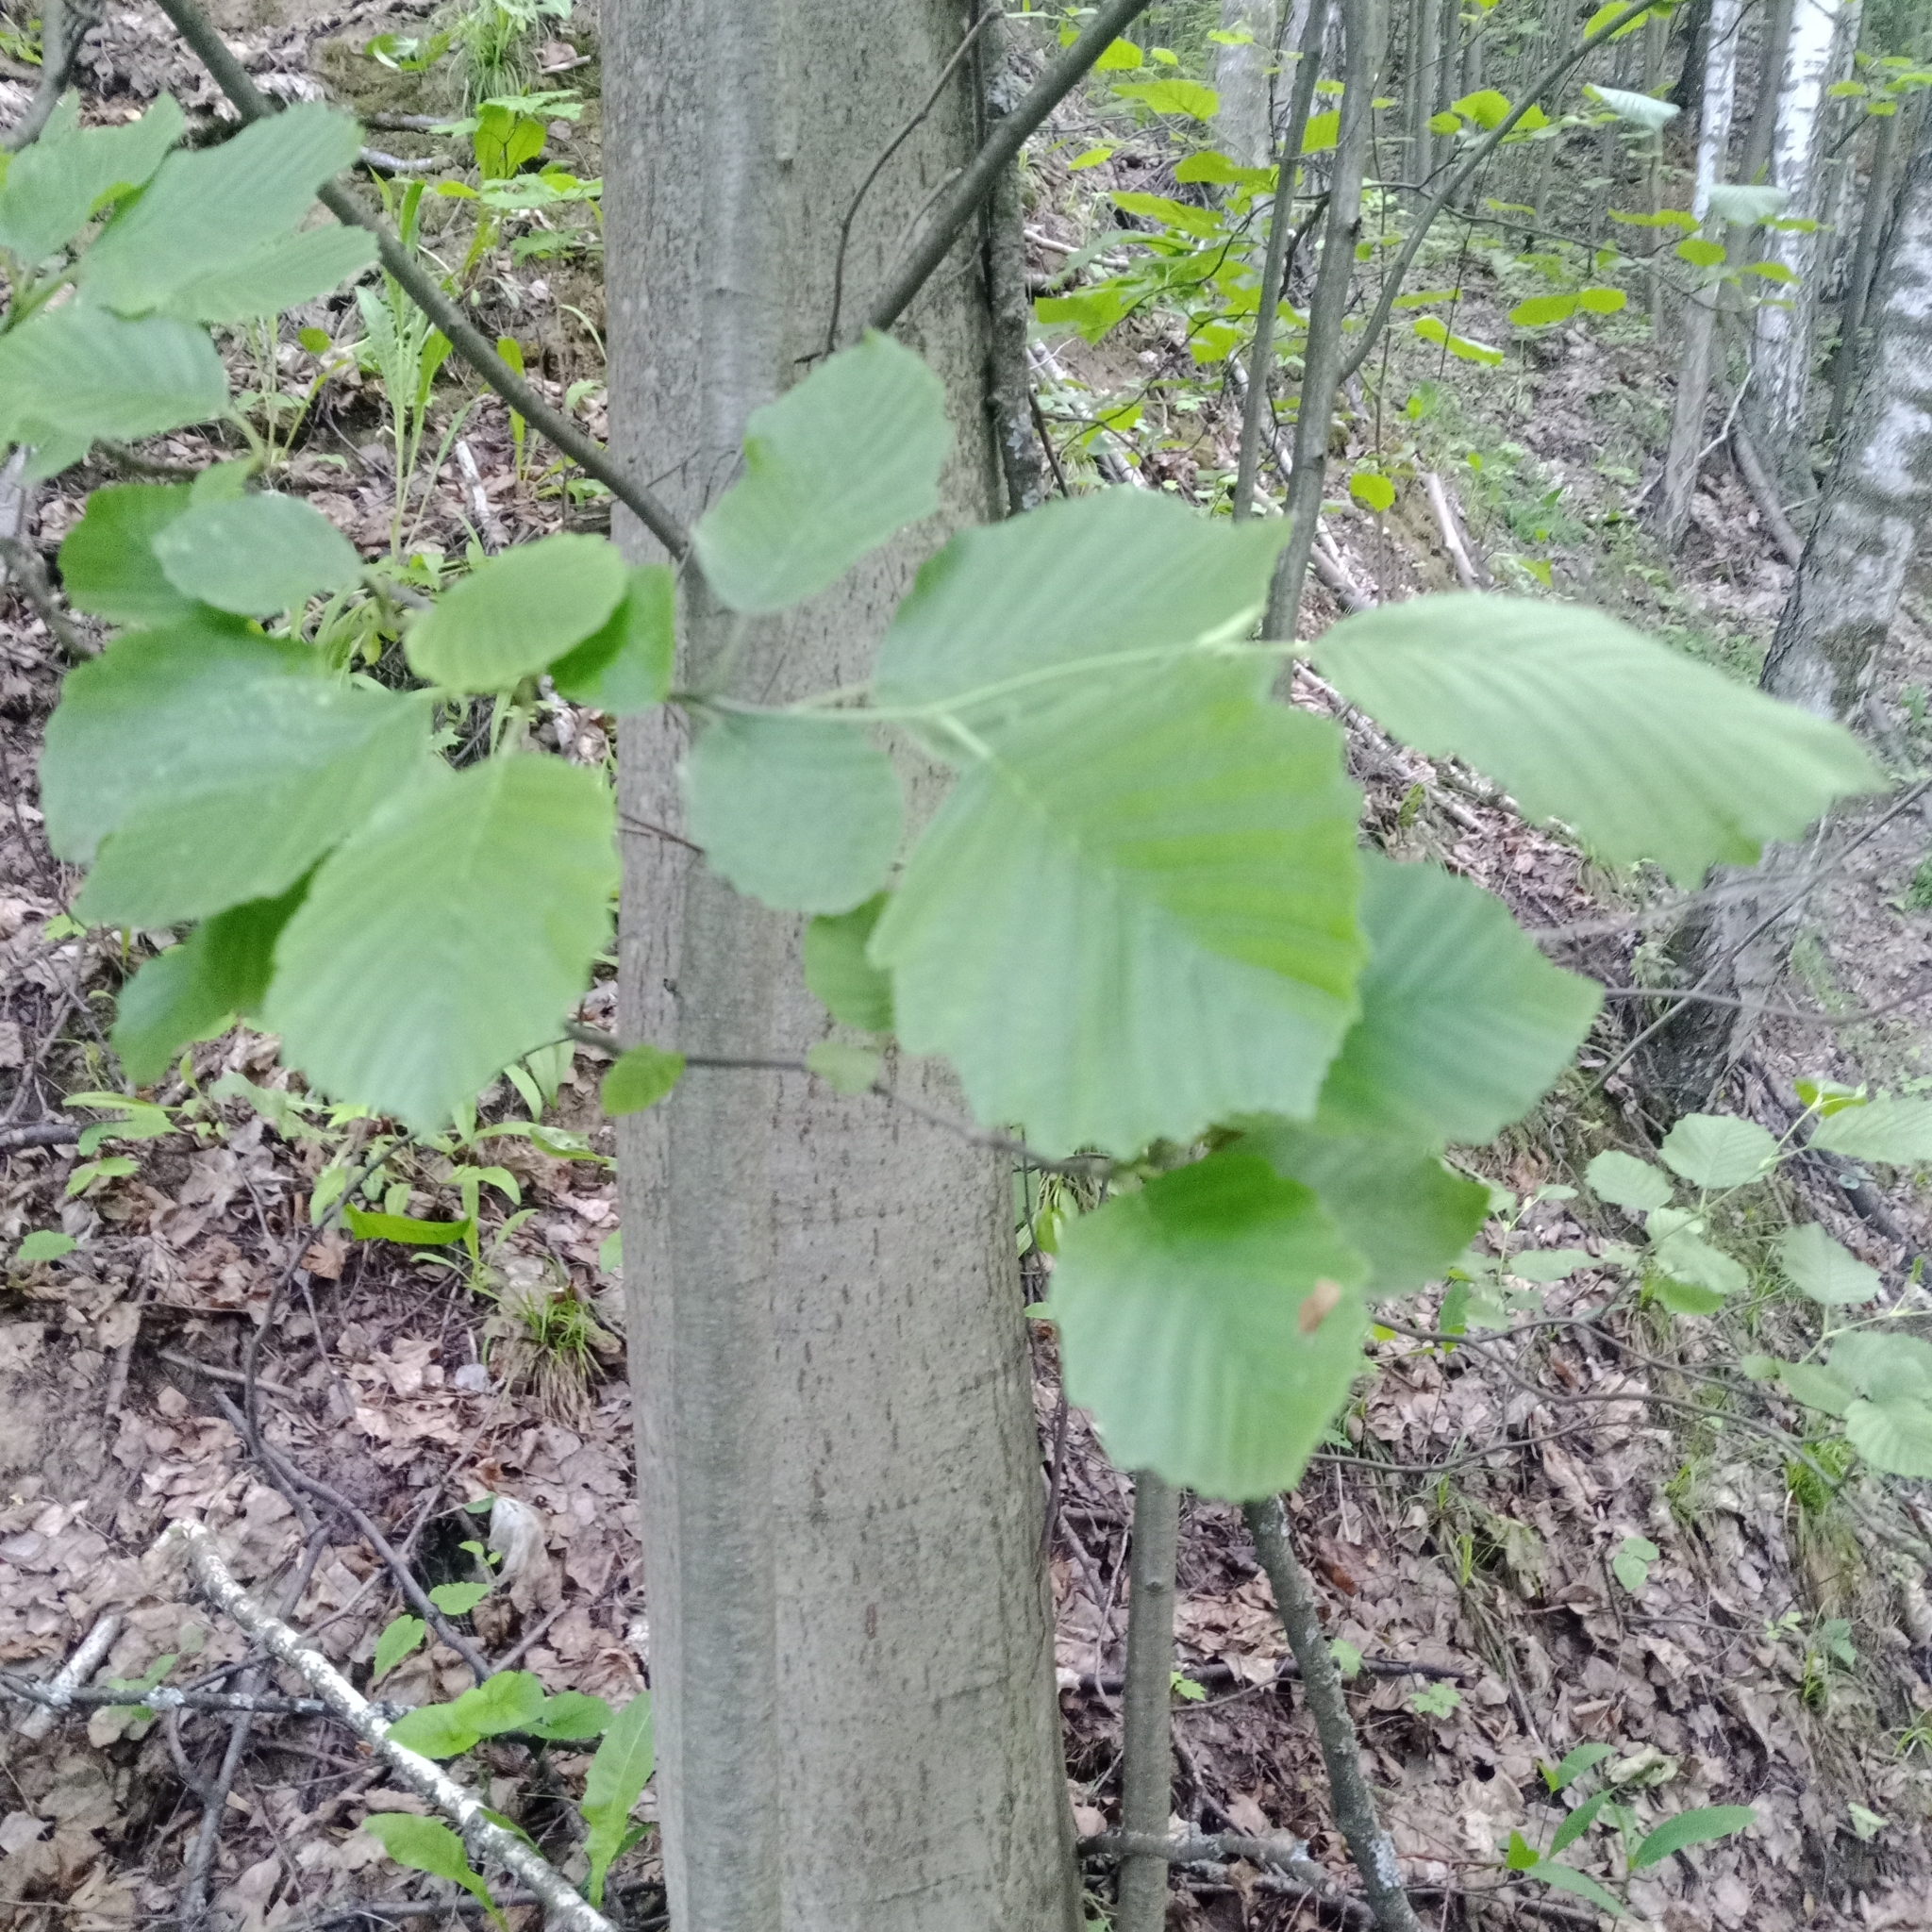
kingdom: Plantae
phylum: Tracheophyta
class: Magnoliopsida
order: Fagales
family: Betulaceae
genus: Alnus
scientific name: Alnus incana
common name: Grey alder
